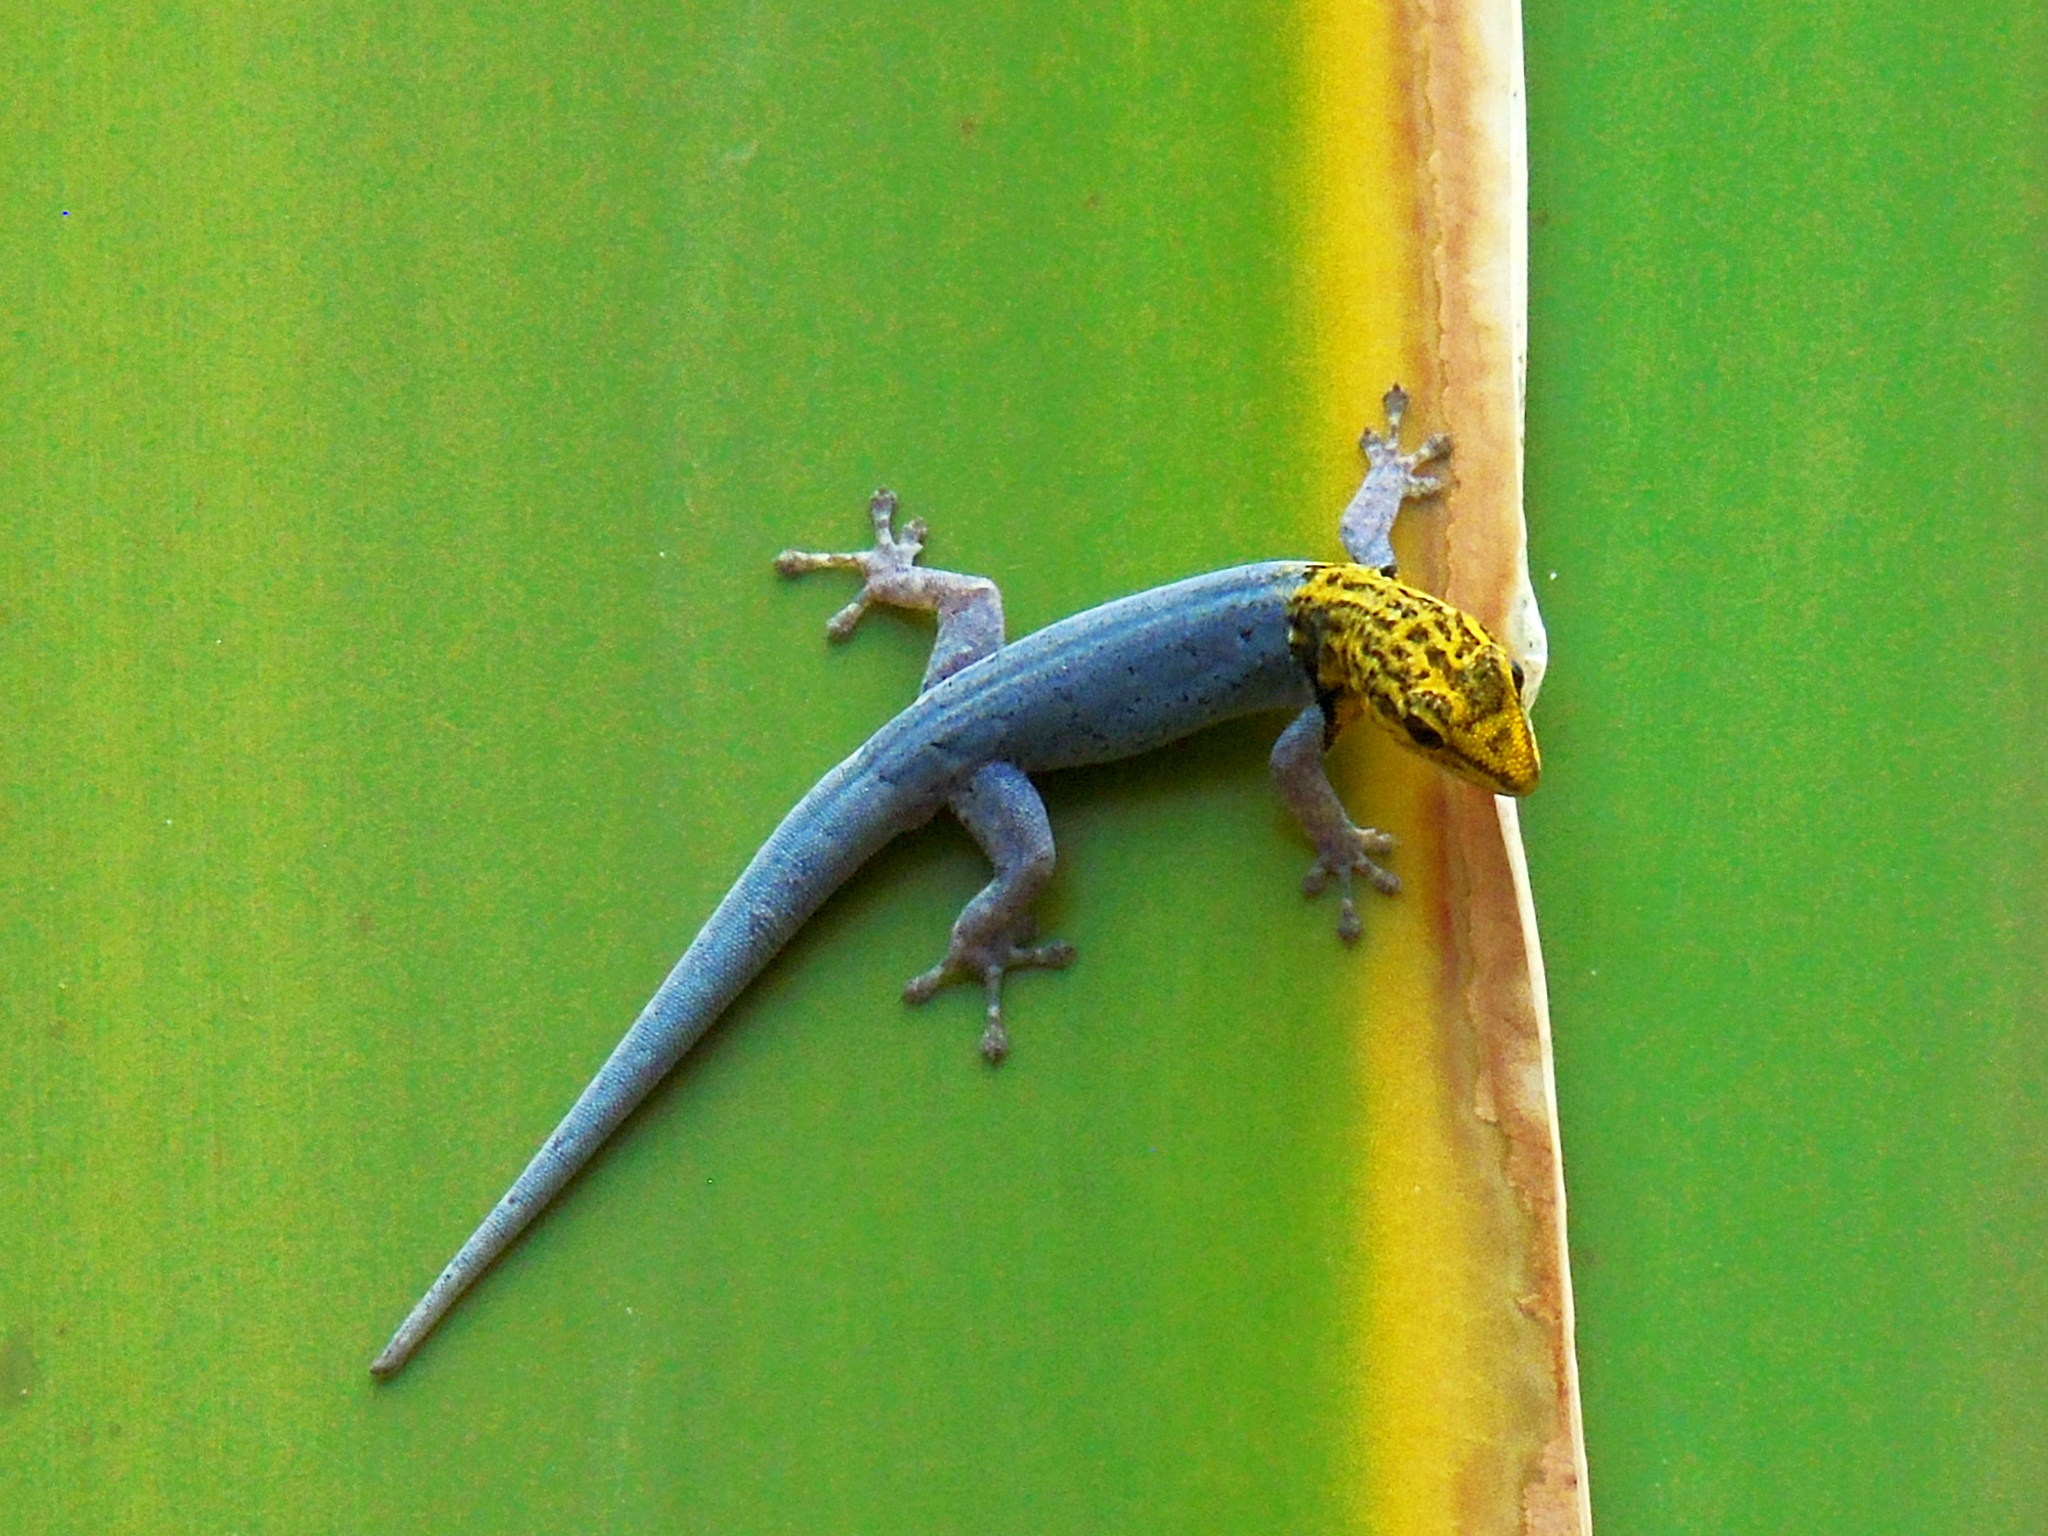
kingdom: Animalia
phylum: Chordata
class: Squamata
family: Gekkonidae
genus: Lygodactylus
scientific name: Lygodactylus picturatus
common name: Painted dwarf gecko
